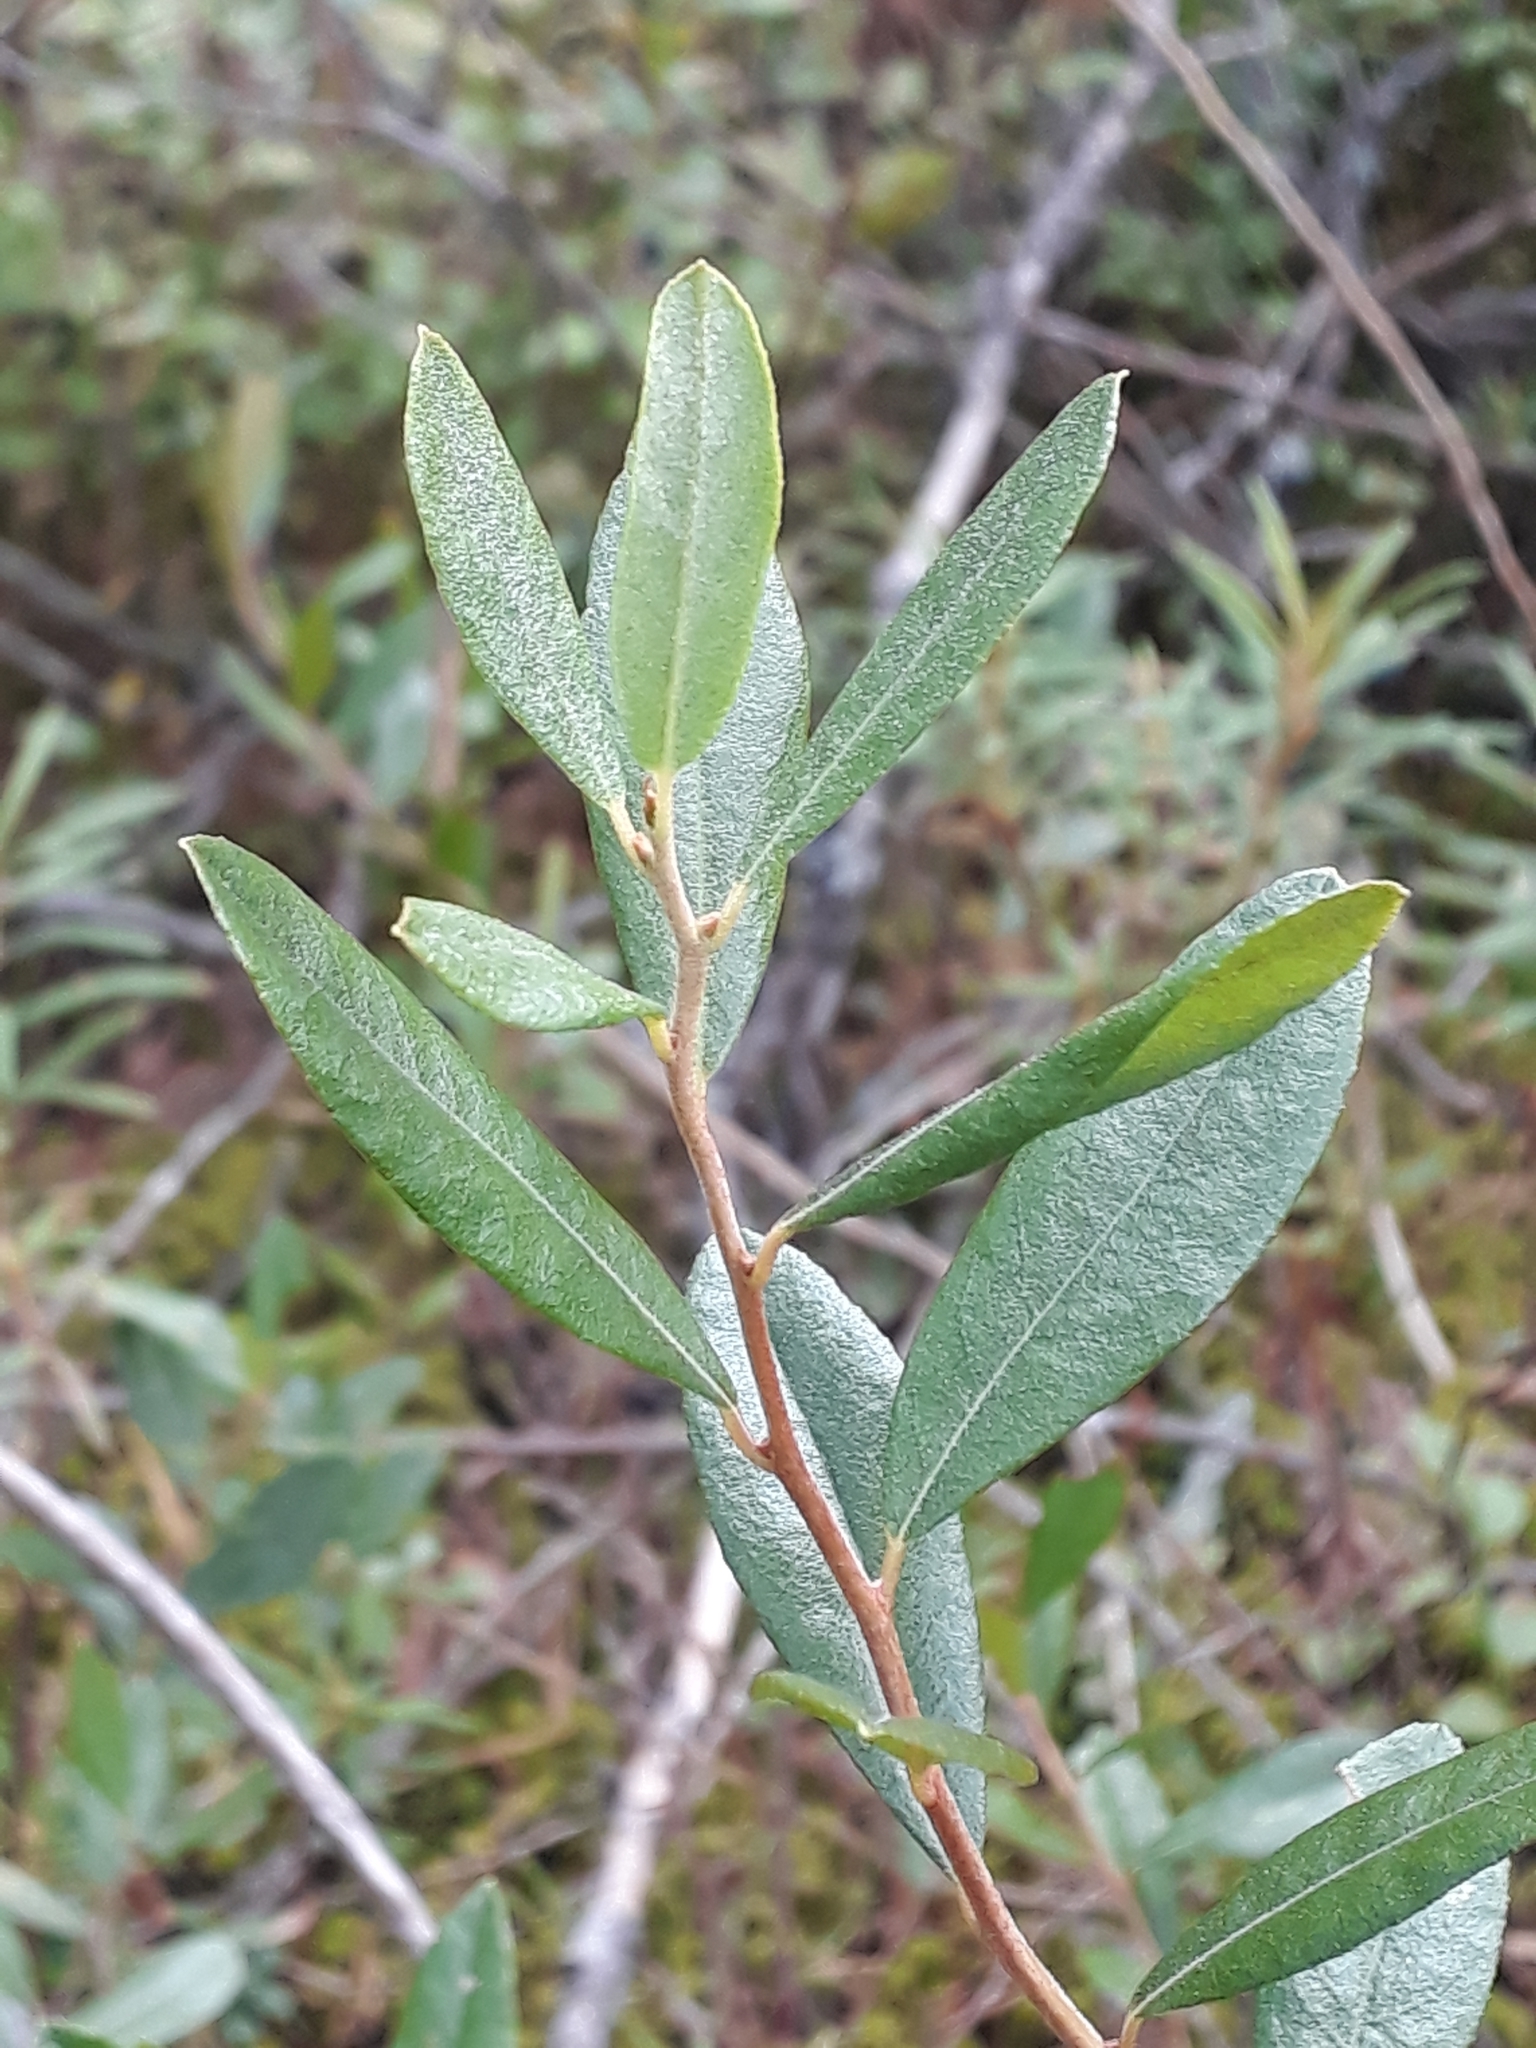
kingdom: Plantae
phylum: Tracheophyta
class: Magnoliopsida
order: Ericales
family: Ericaceae
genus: Chamaedaphne
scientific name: Chamaedaphne calyculata
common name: Leatherleaf
